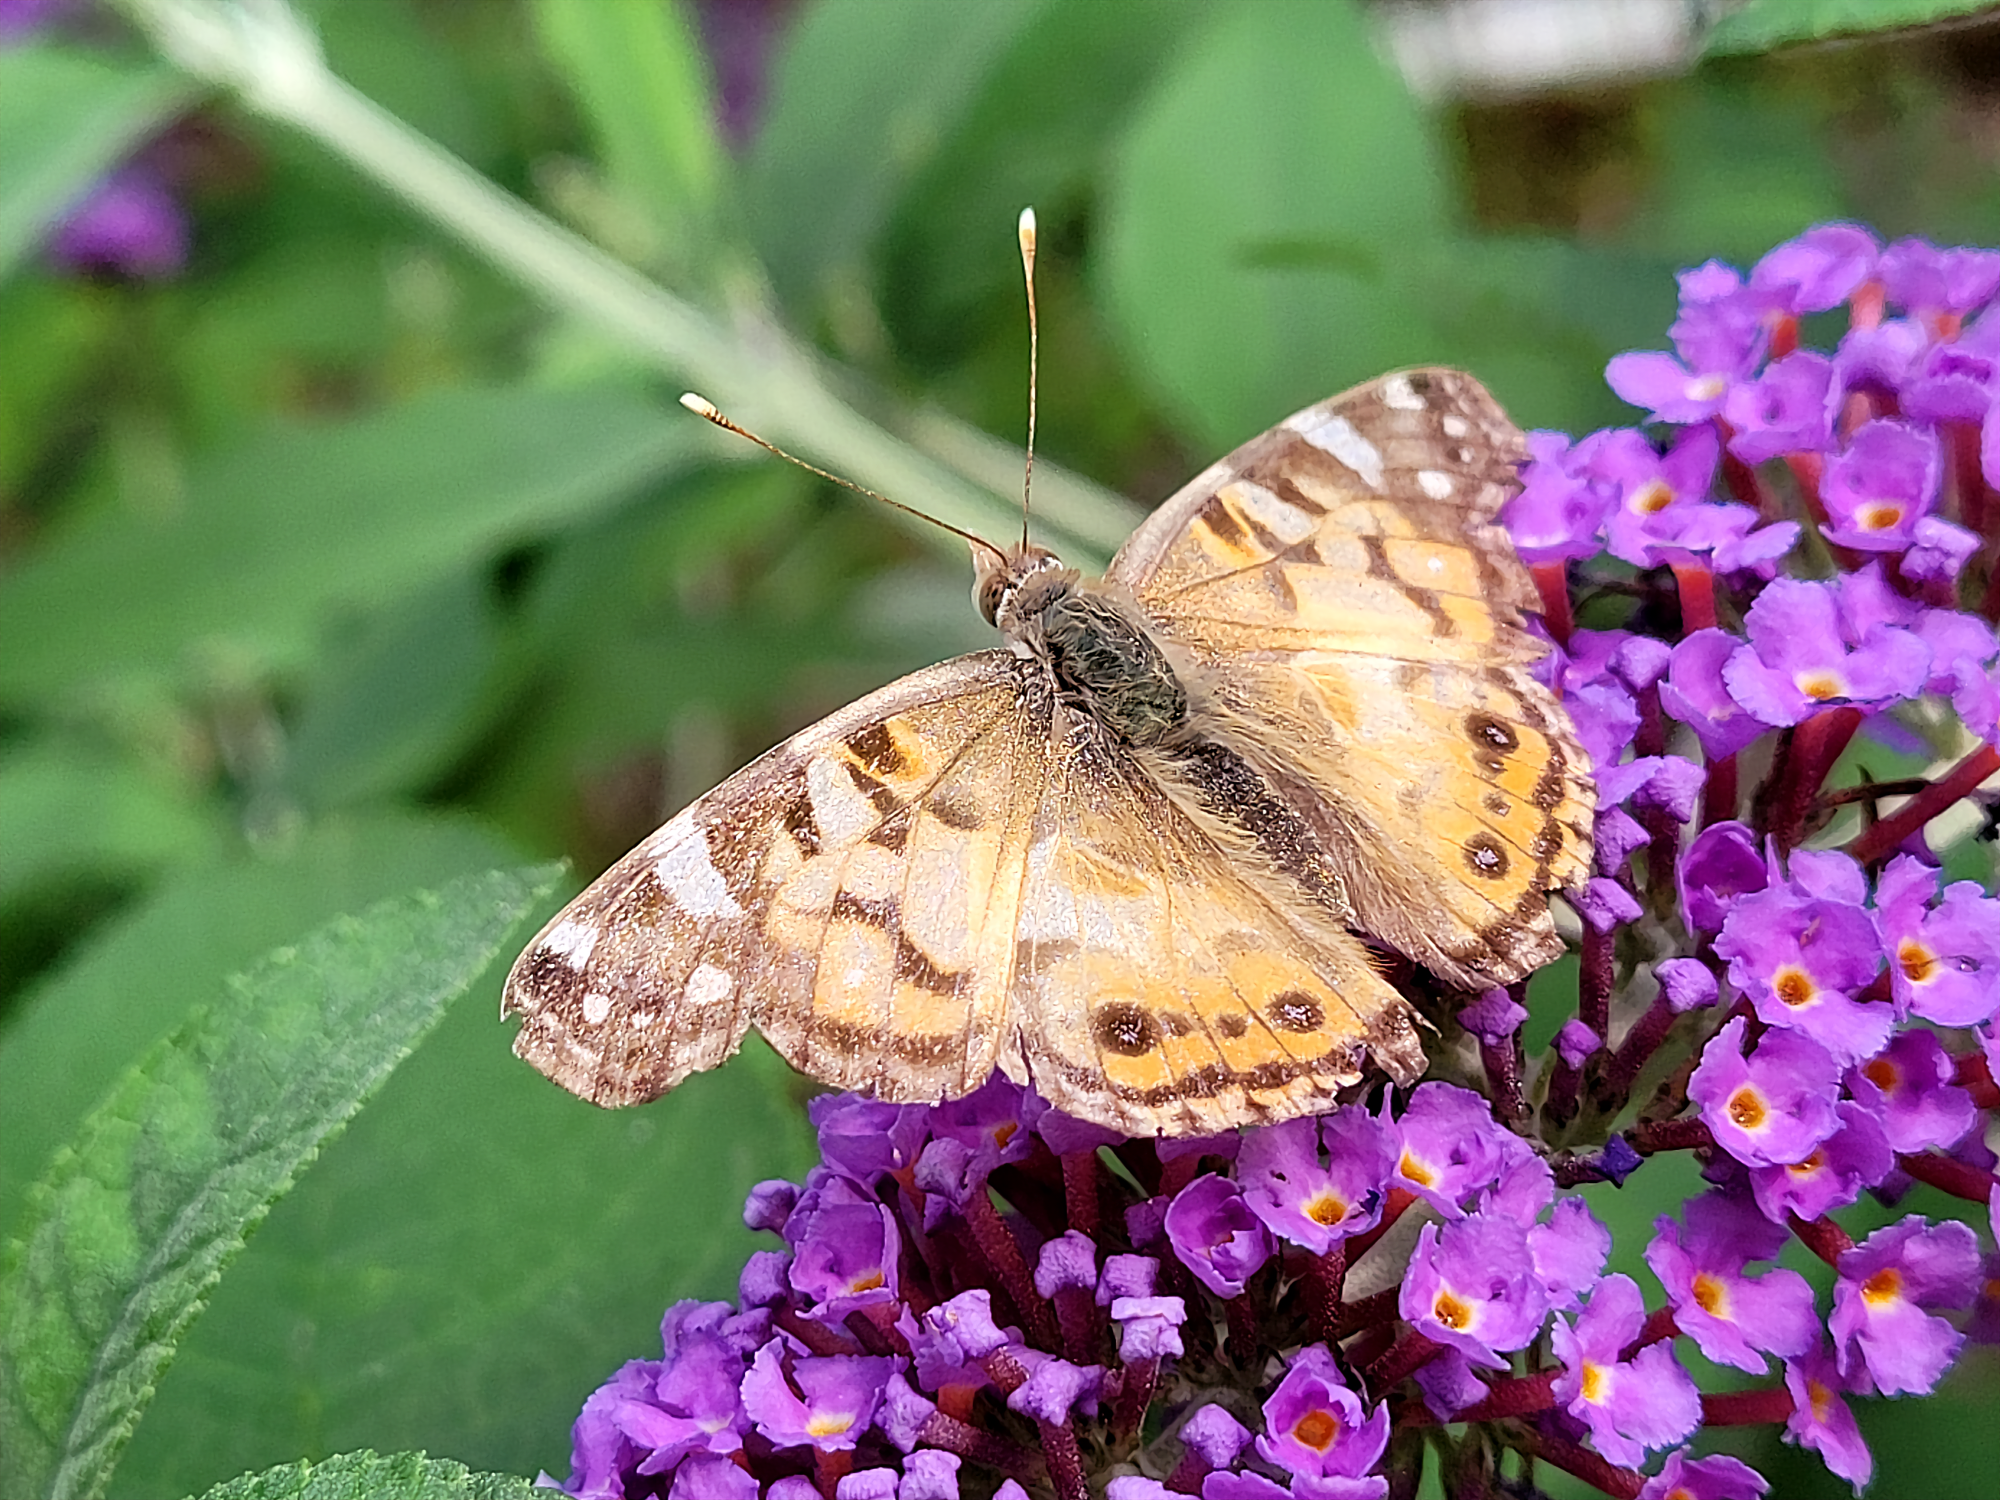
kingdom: Animalia
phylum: Arthropoda
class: Insecta
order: Lepidoptera
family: Nymphalidae
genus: Vanessa
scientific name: Vanessa virginiensis
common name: American lady
